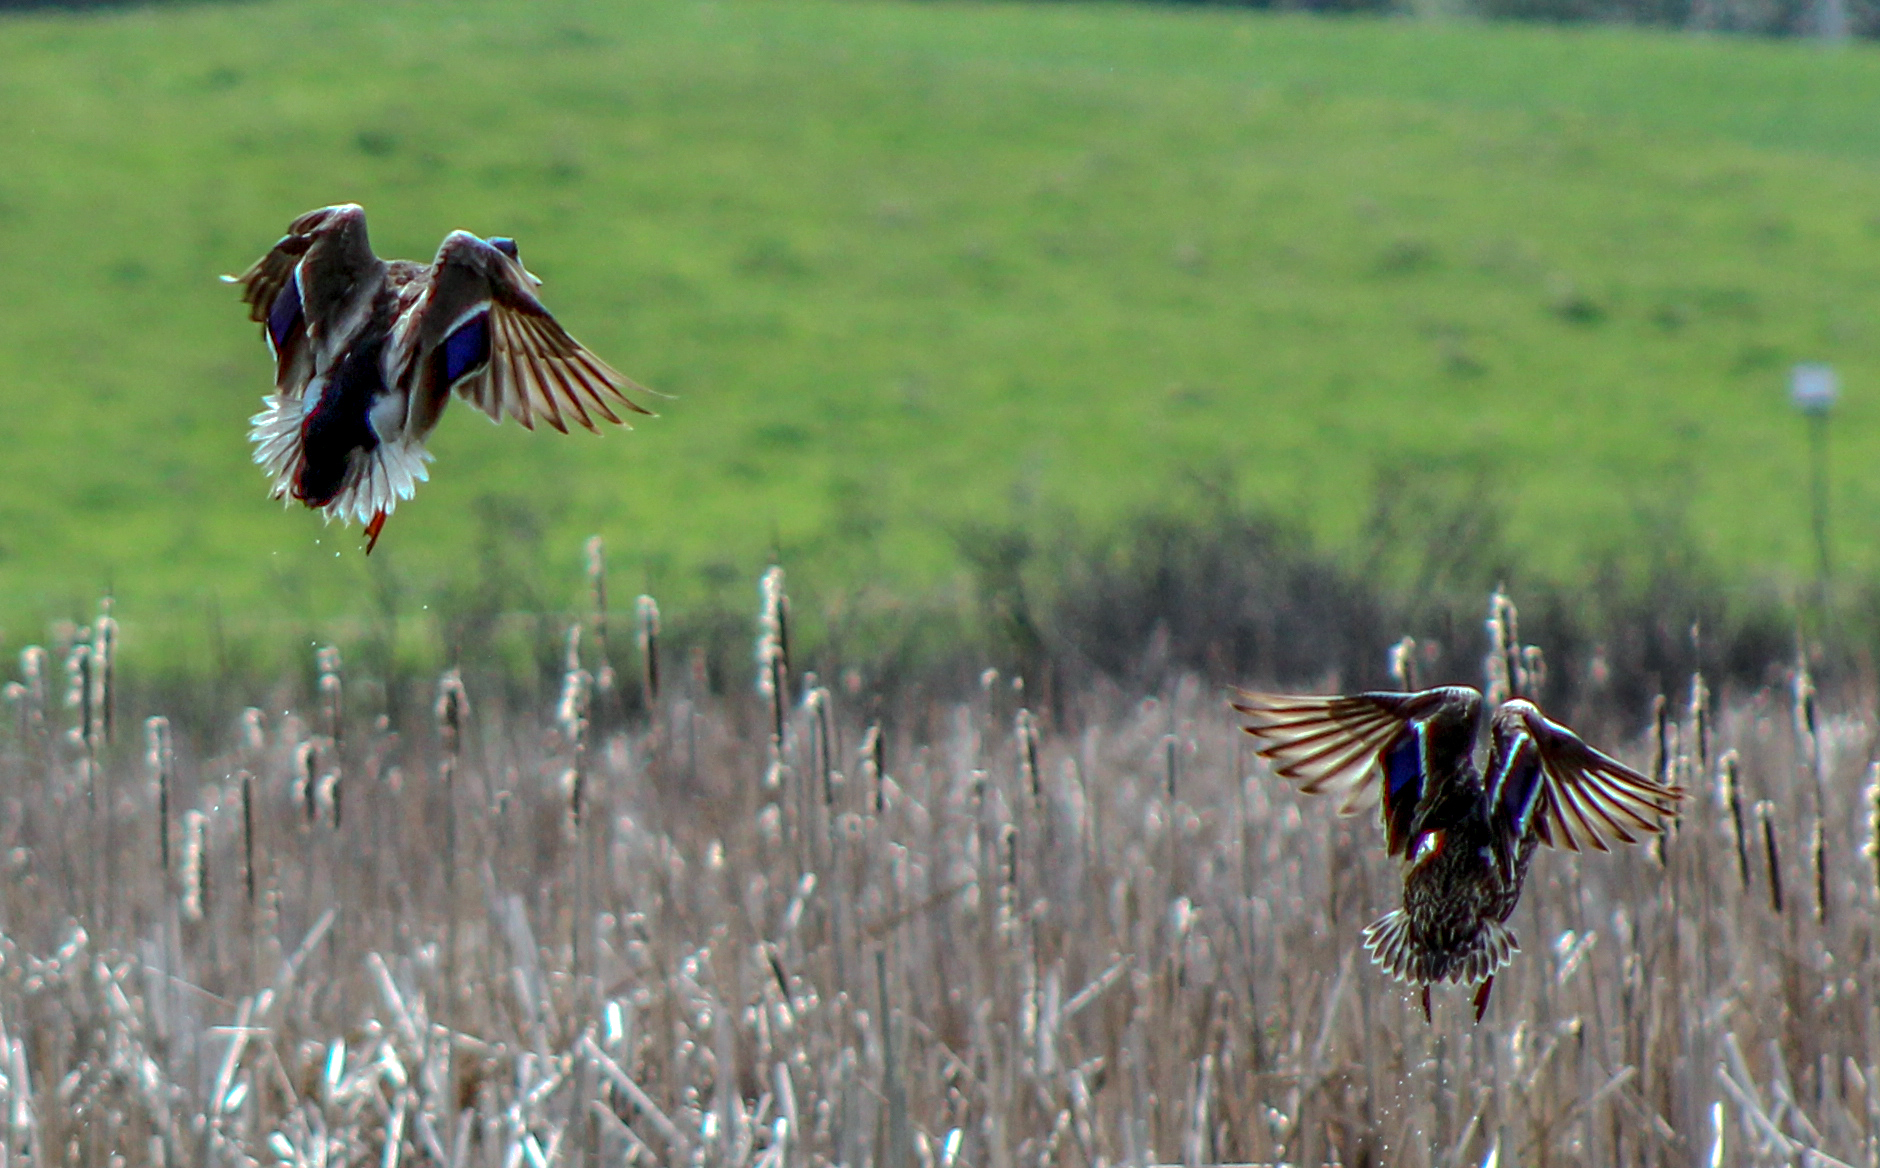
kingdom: Animalia
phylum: Chordata
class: Aves
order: Anseriformes
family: Anatidae
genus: Anas
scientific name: Anas platyrhynchos
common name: Mallard
